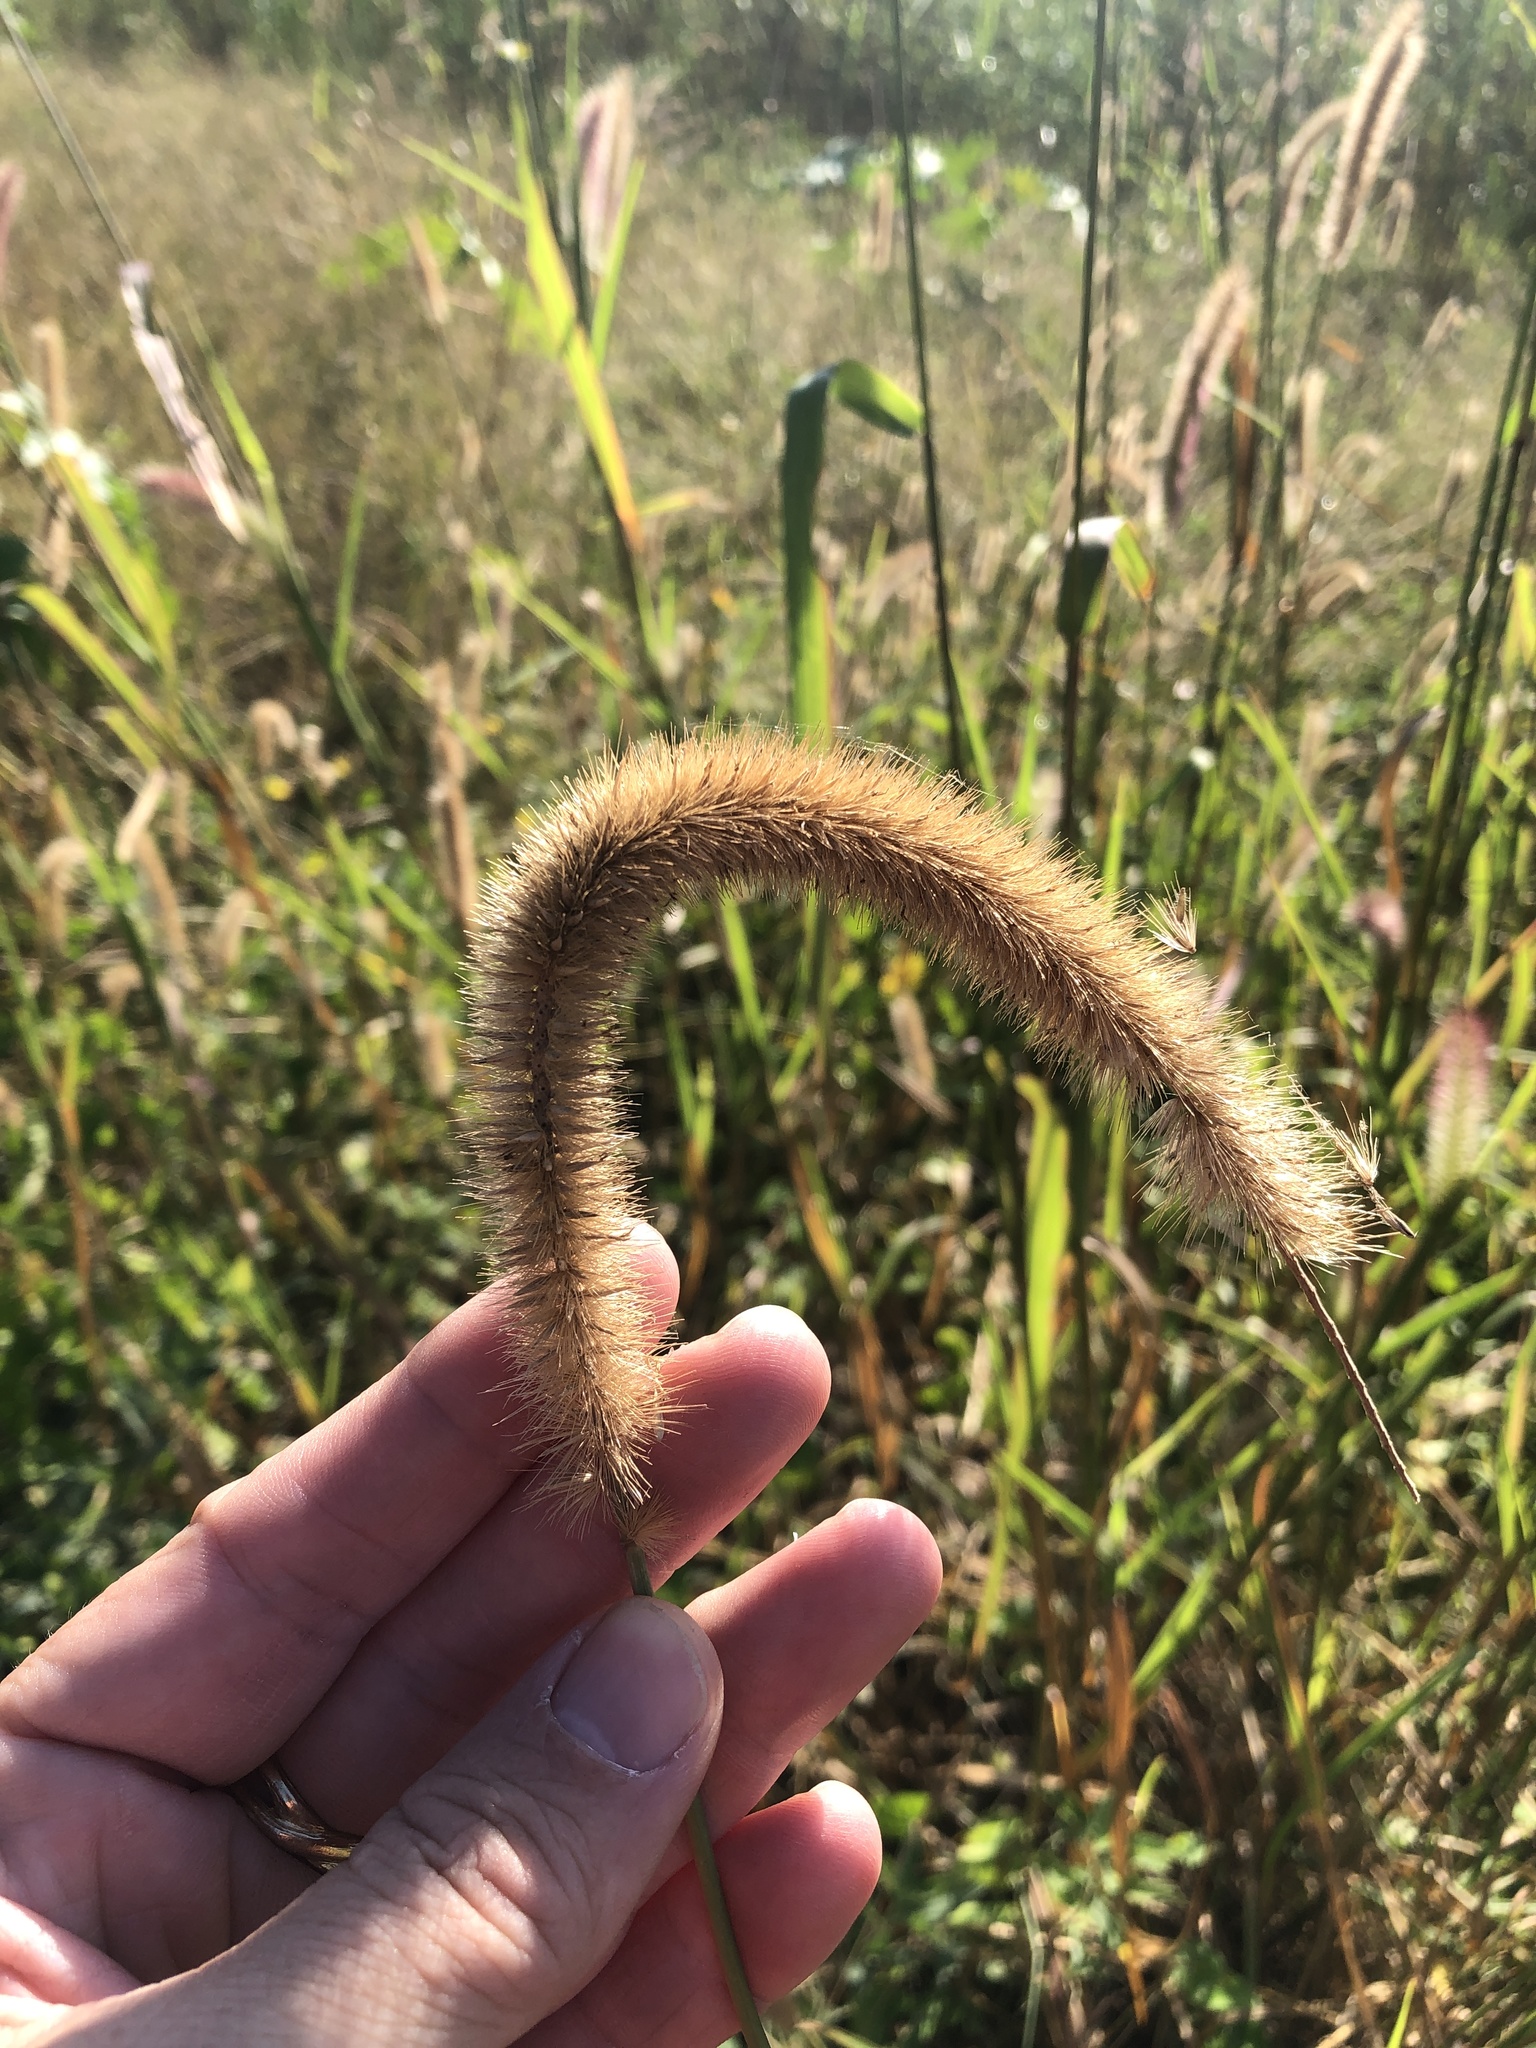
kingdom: Plantae
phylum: Tracheophyta
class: Liliopsida
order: Poales
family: Poaceae
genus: Cenchrus
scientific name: Cenchrus nervosus
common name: Bentspike fountaingrass
